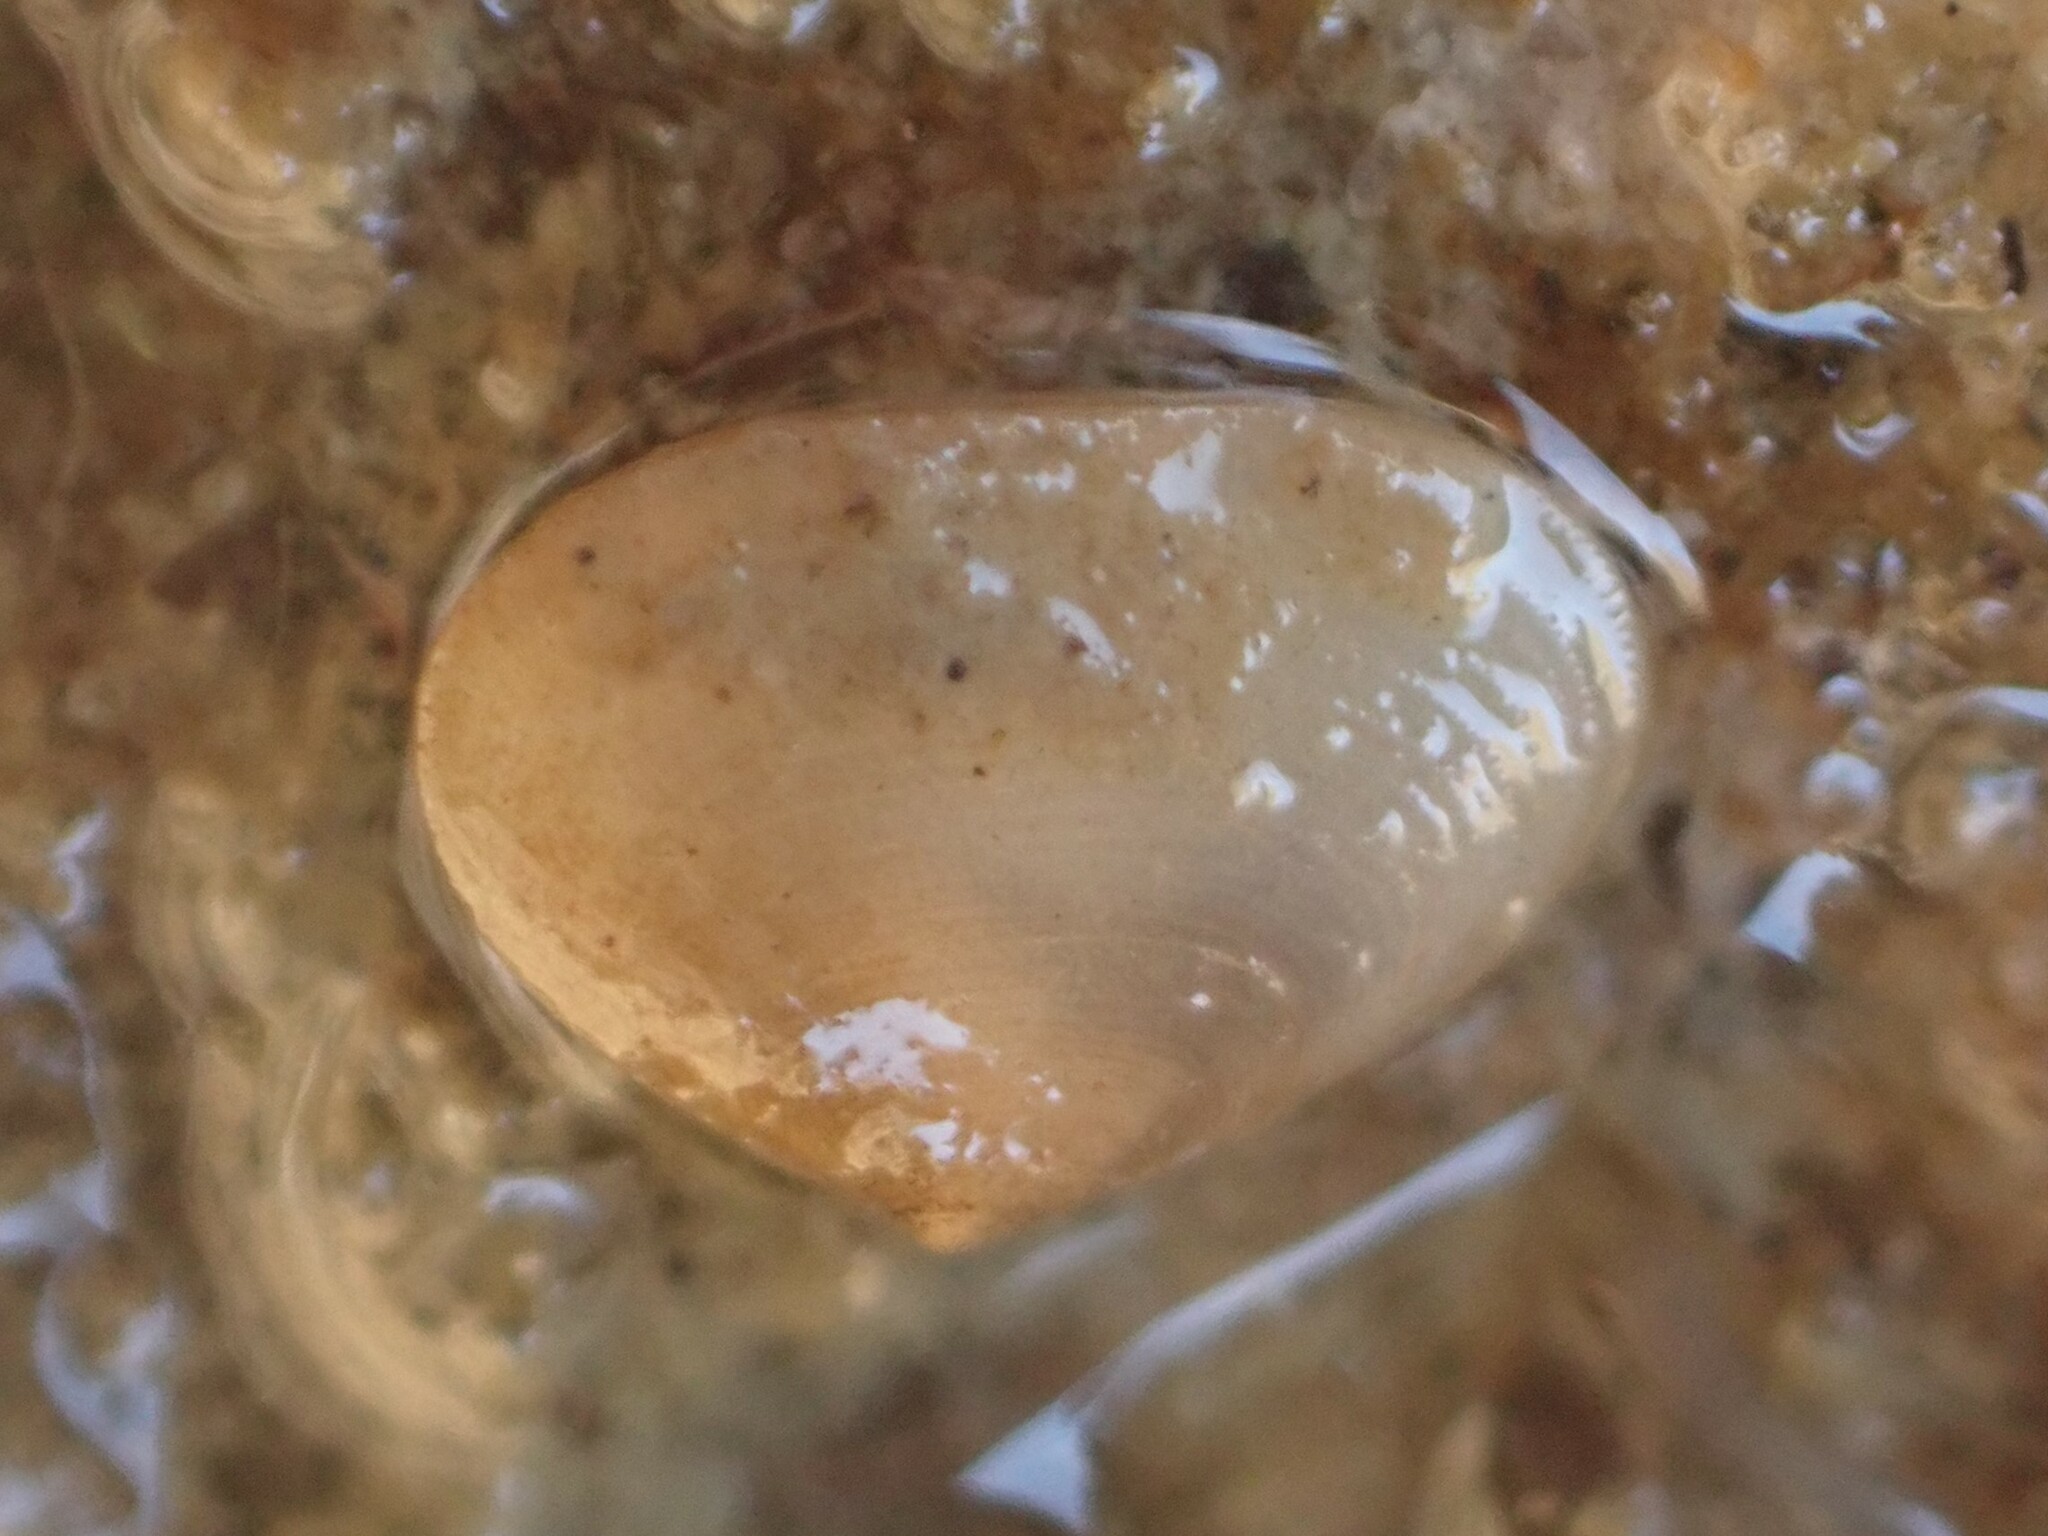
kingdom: Animalia
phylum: Mollusca
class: Bivalvia
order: Galeommatida
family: Lasaeidae
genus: Borniola
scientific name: Borniola reniformis
